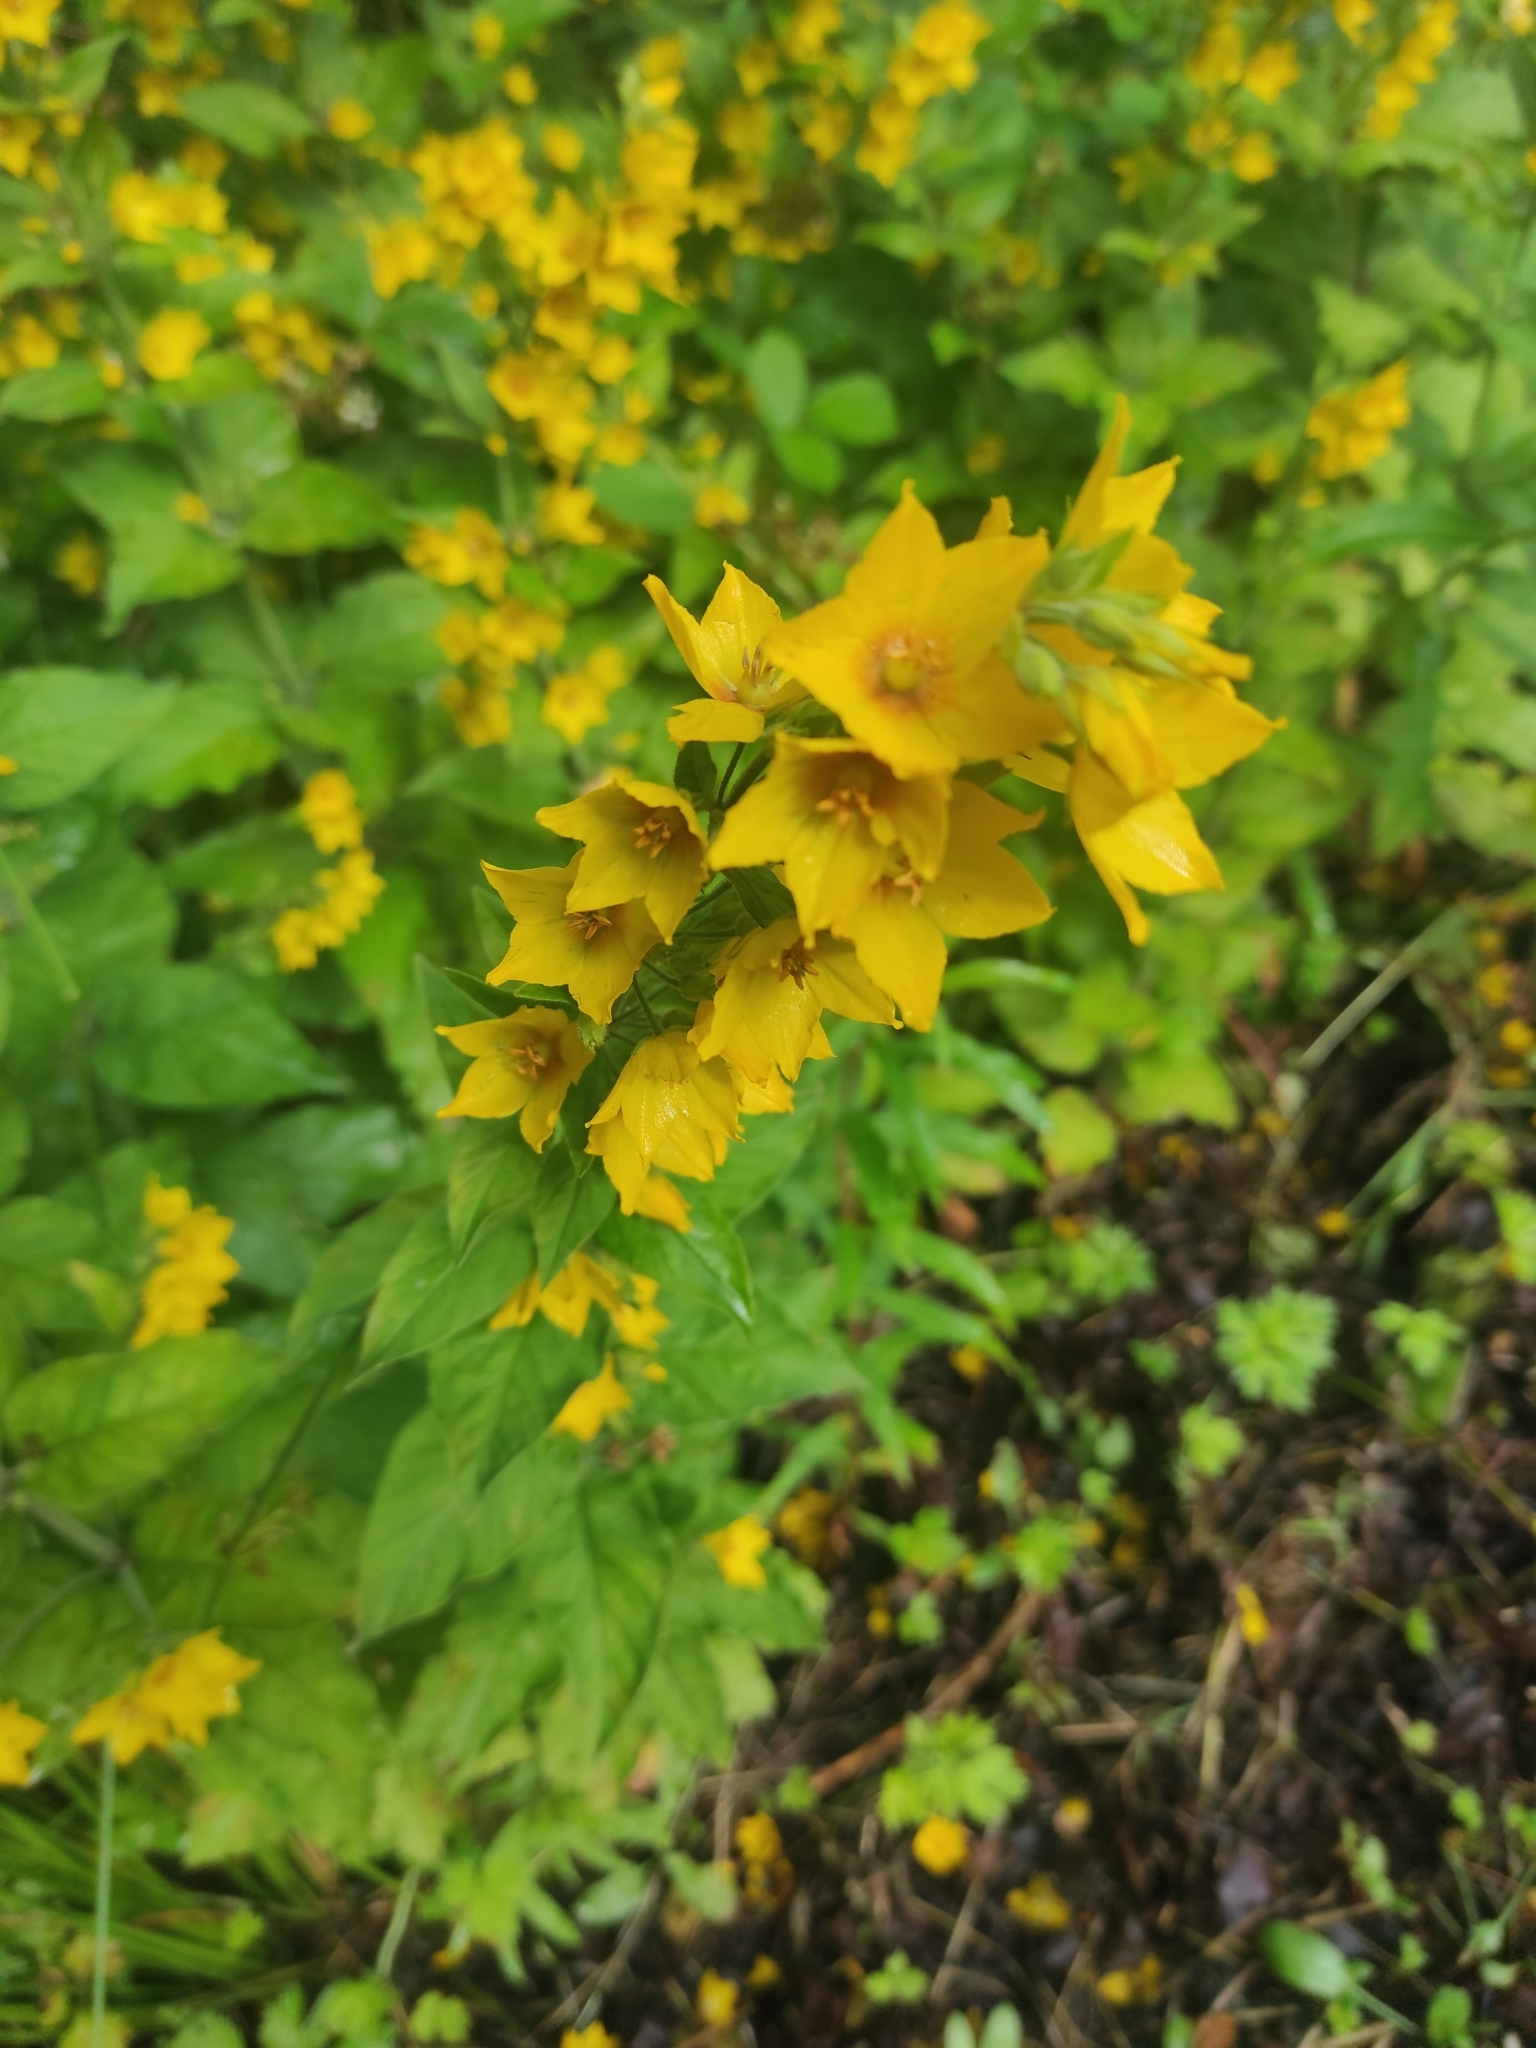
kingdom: Plantae
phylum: Tracheophyta
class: Magnoliopsida
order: Ericales
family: Primulaceae
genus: Lysimachia
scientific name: Lysimachia punctata
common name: Dotted loosestrife
